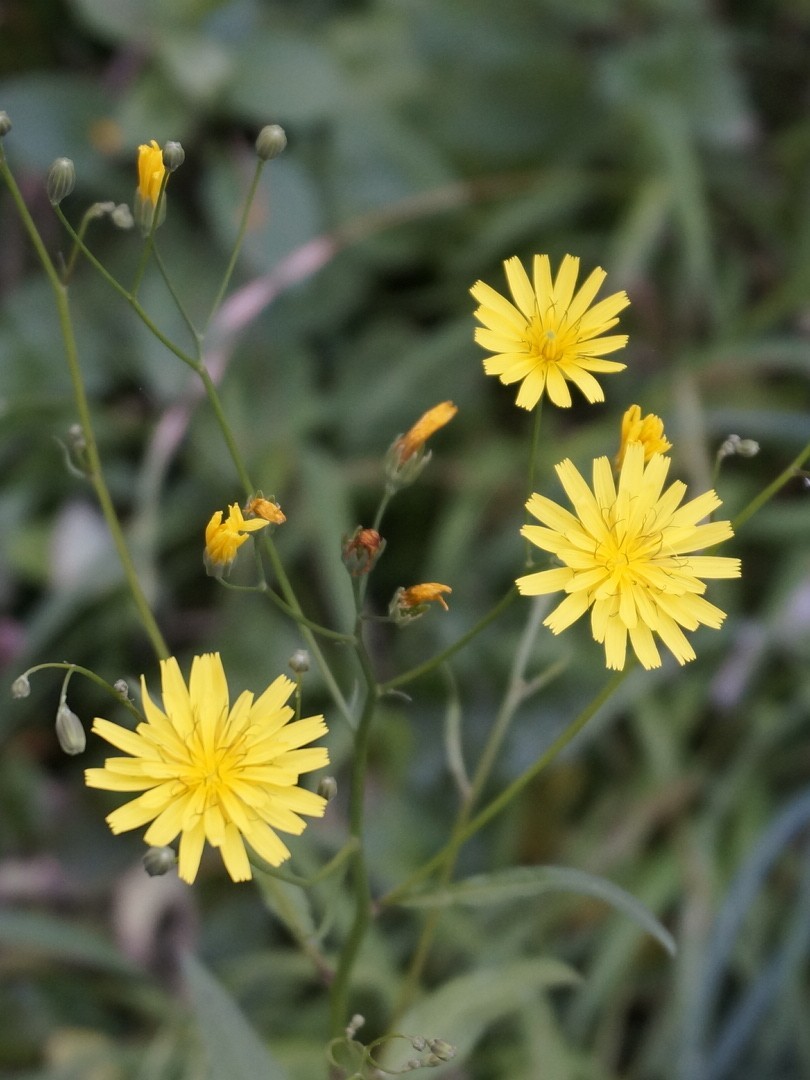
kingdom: Plantae
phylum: Tracheophyta
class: Magnoliopsida
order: Asterales
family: Asteraceae
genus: Lapsana
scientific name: Lapsana communis
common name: Nipplewort
